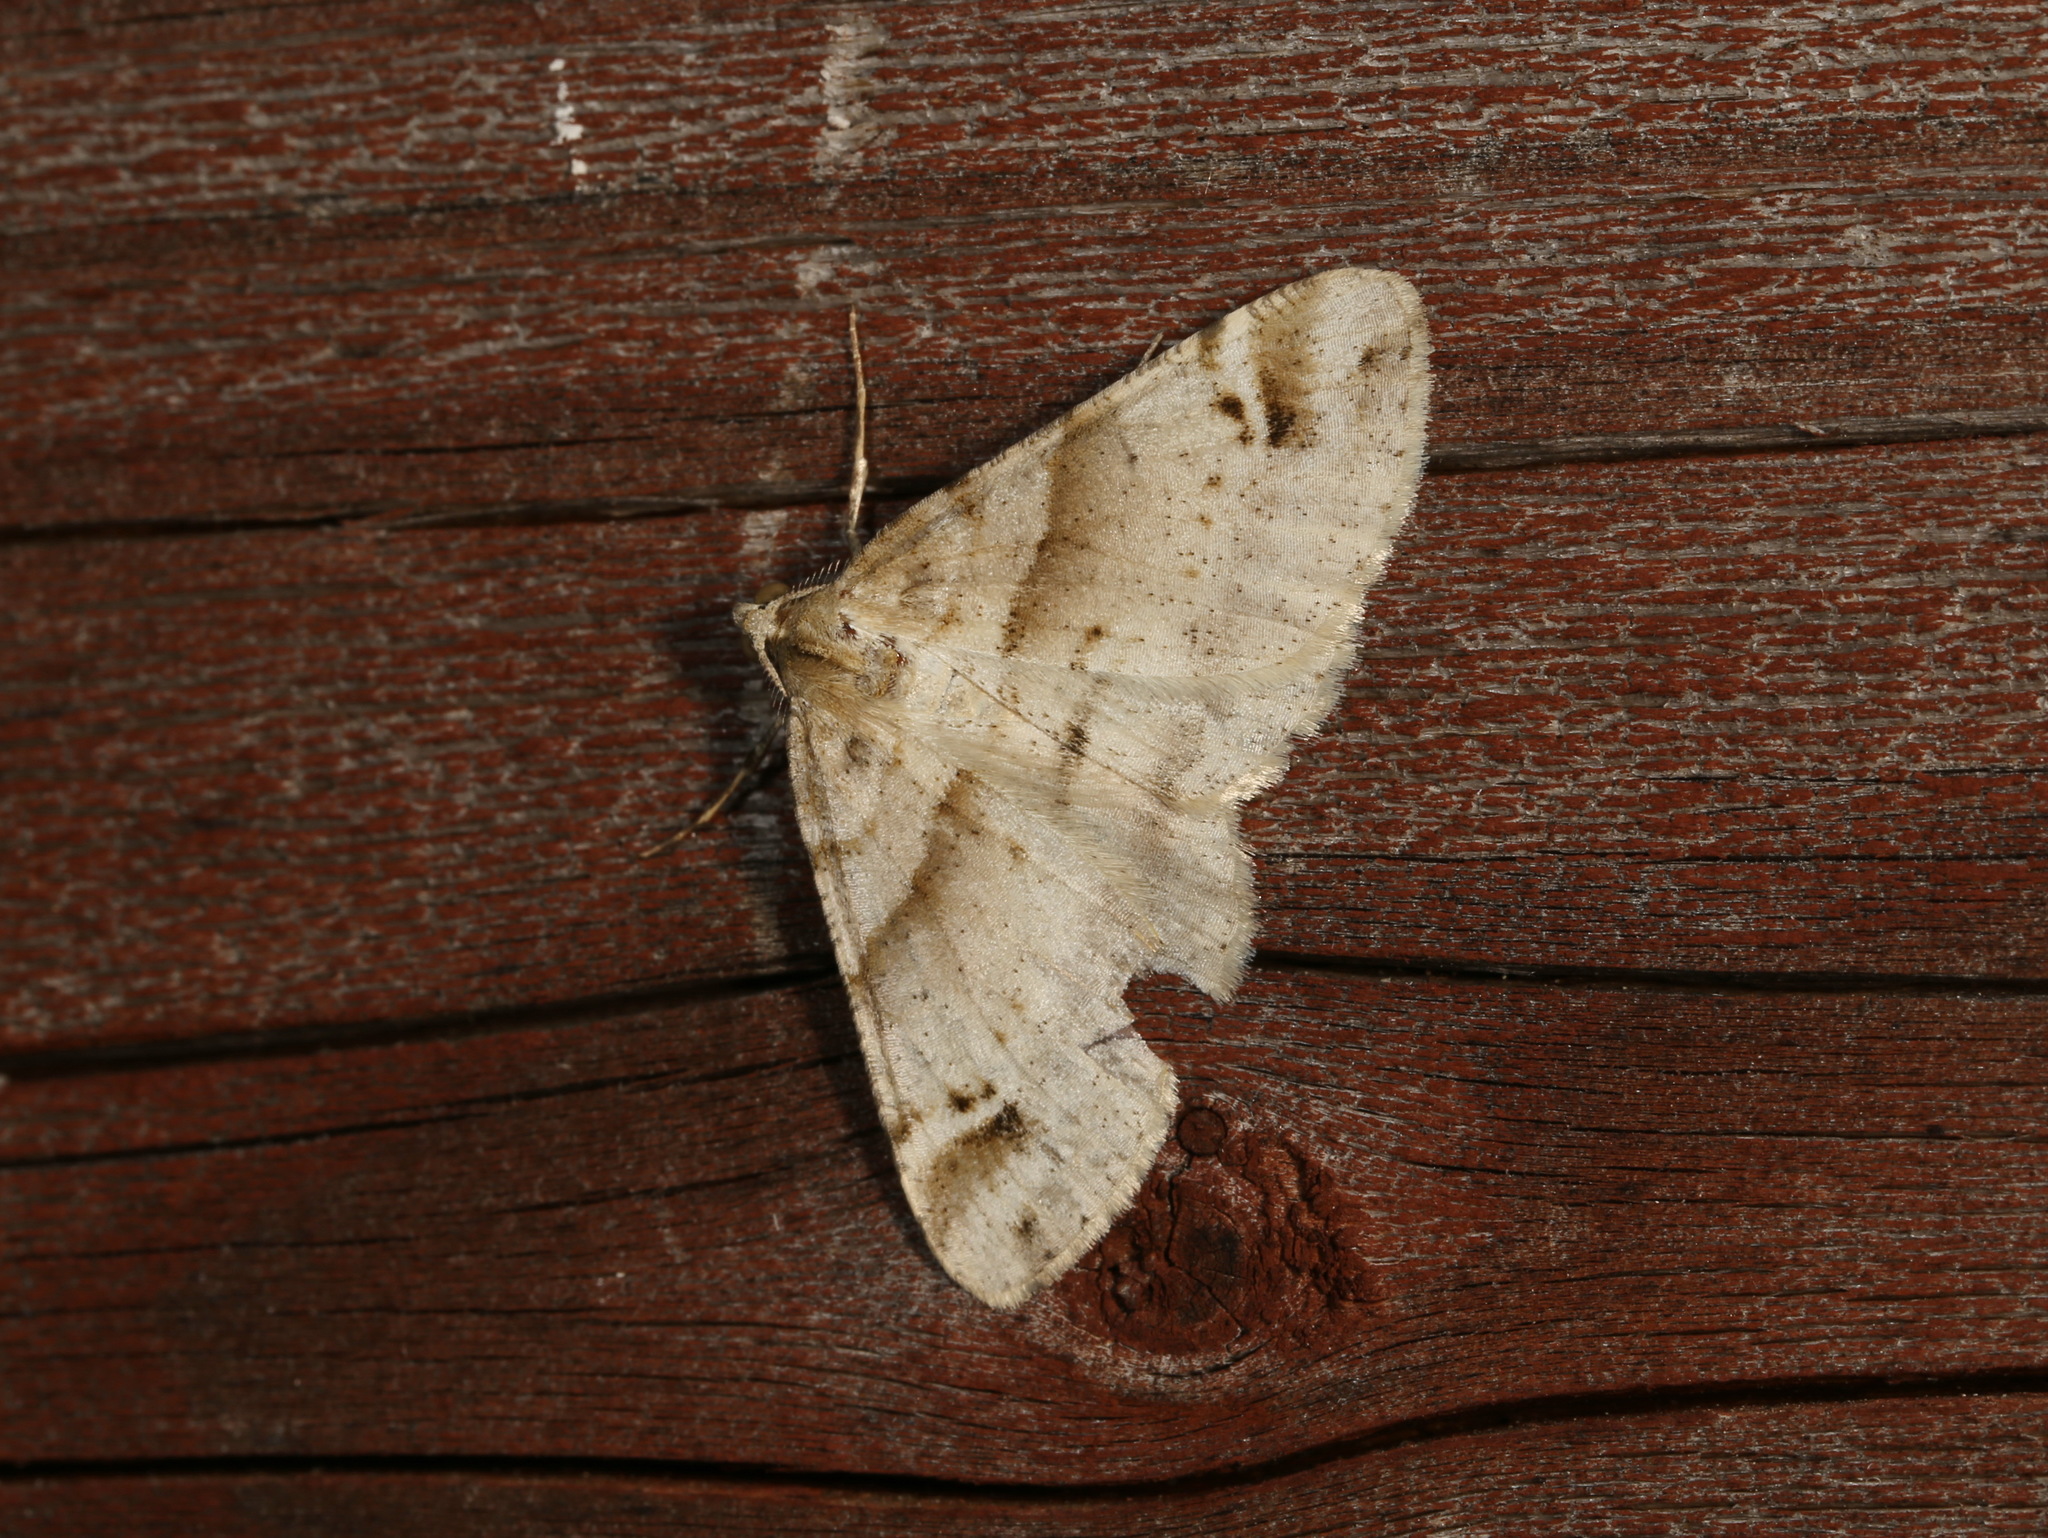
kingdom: Animalia
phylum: Arthropoda
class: Insecta
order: Lepidoptera
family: Geometridae
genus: Syneora
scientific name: Syneora hemeropa
